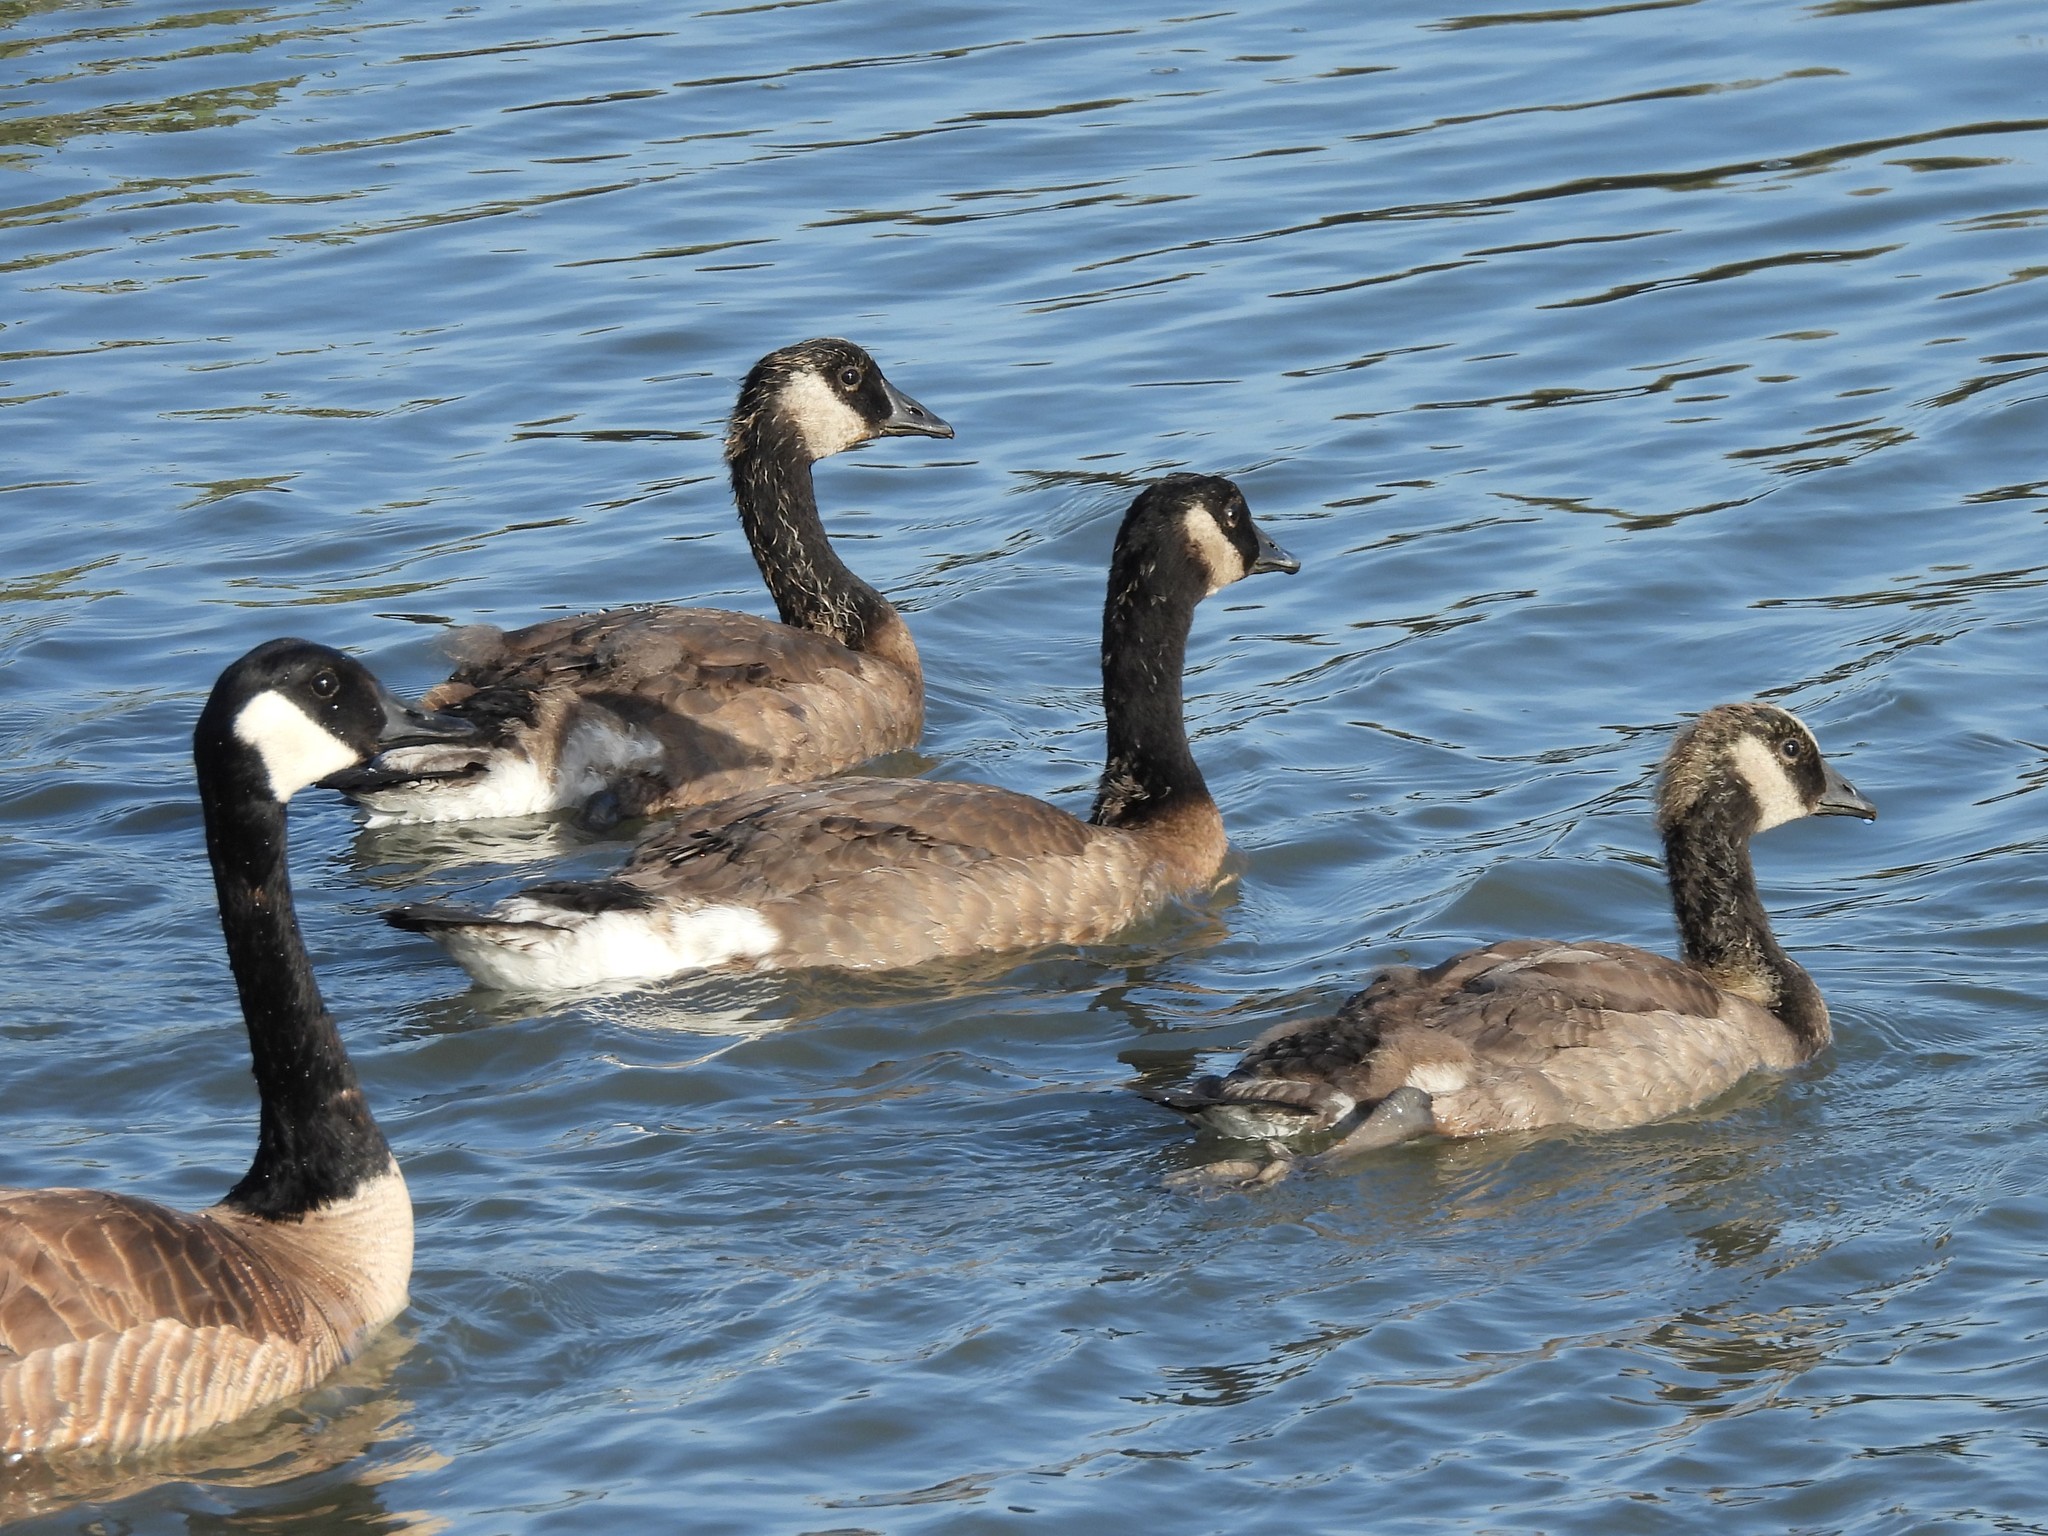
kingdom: Animalia
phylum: Chordata
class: Aves
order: Anseriformes
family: Anatidae
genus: Branta
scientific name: Branta canadensis
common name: Canada goose
